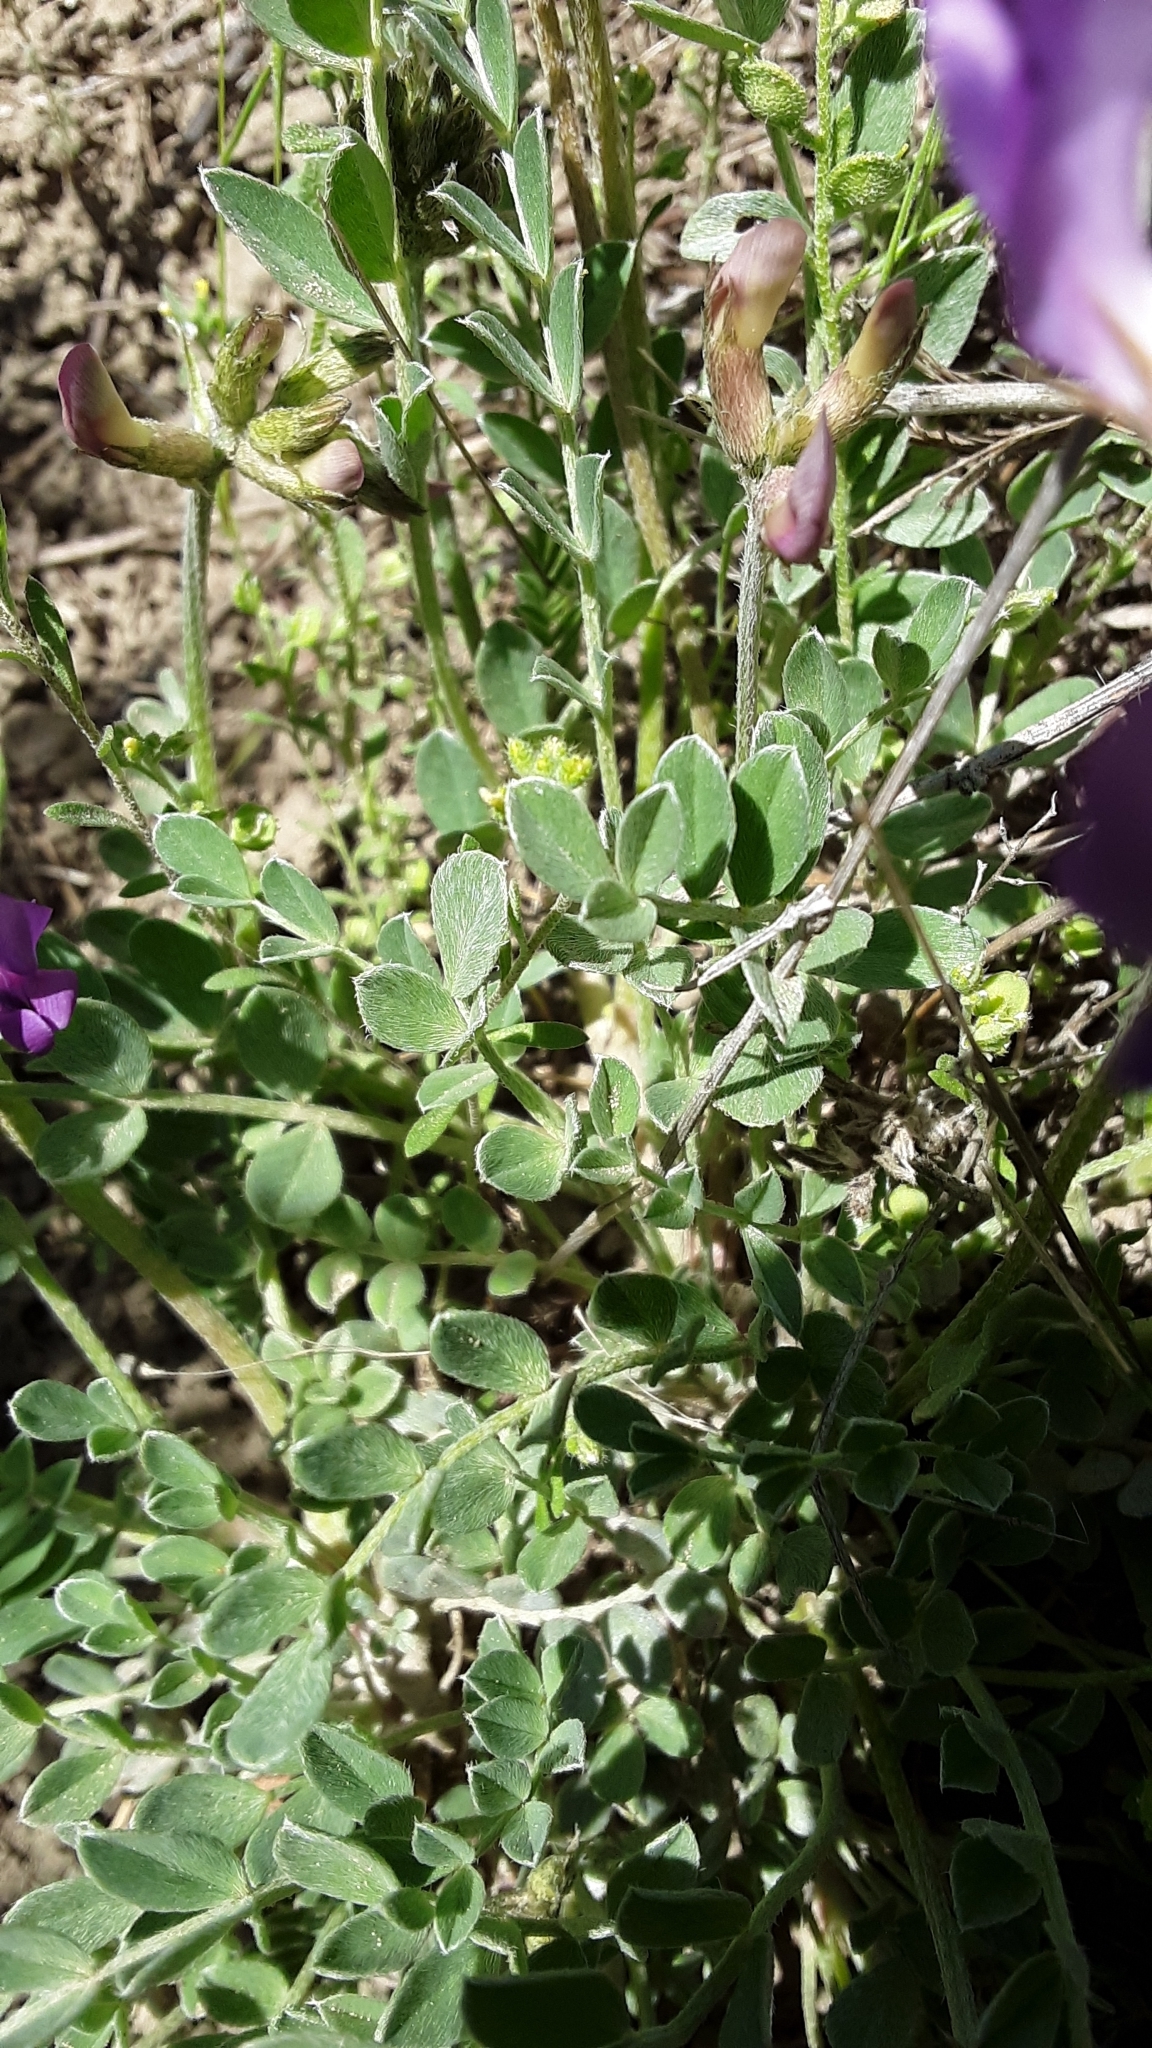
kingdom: Plantae
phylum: Tracheophyta
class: Magnoliopsida
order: Fabales
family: Fabaceae
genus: Astragalus
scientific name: Astragalus missouriensis
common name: Missouri milk-vetch
